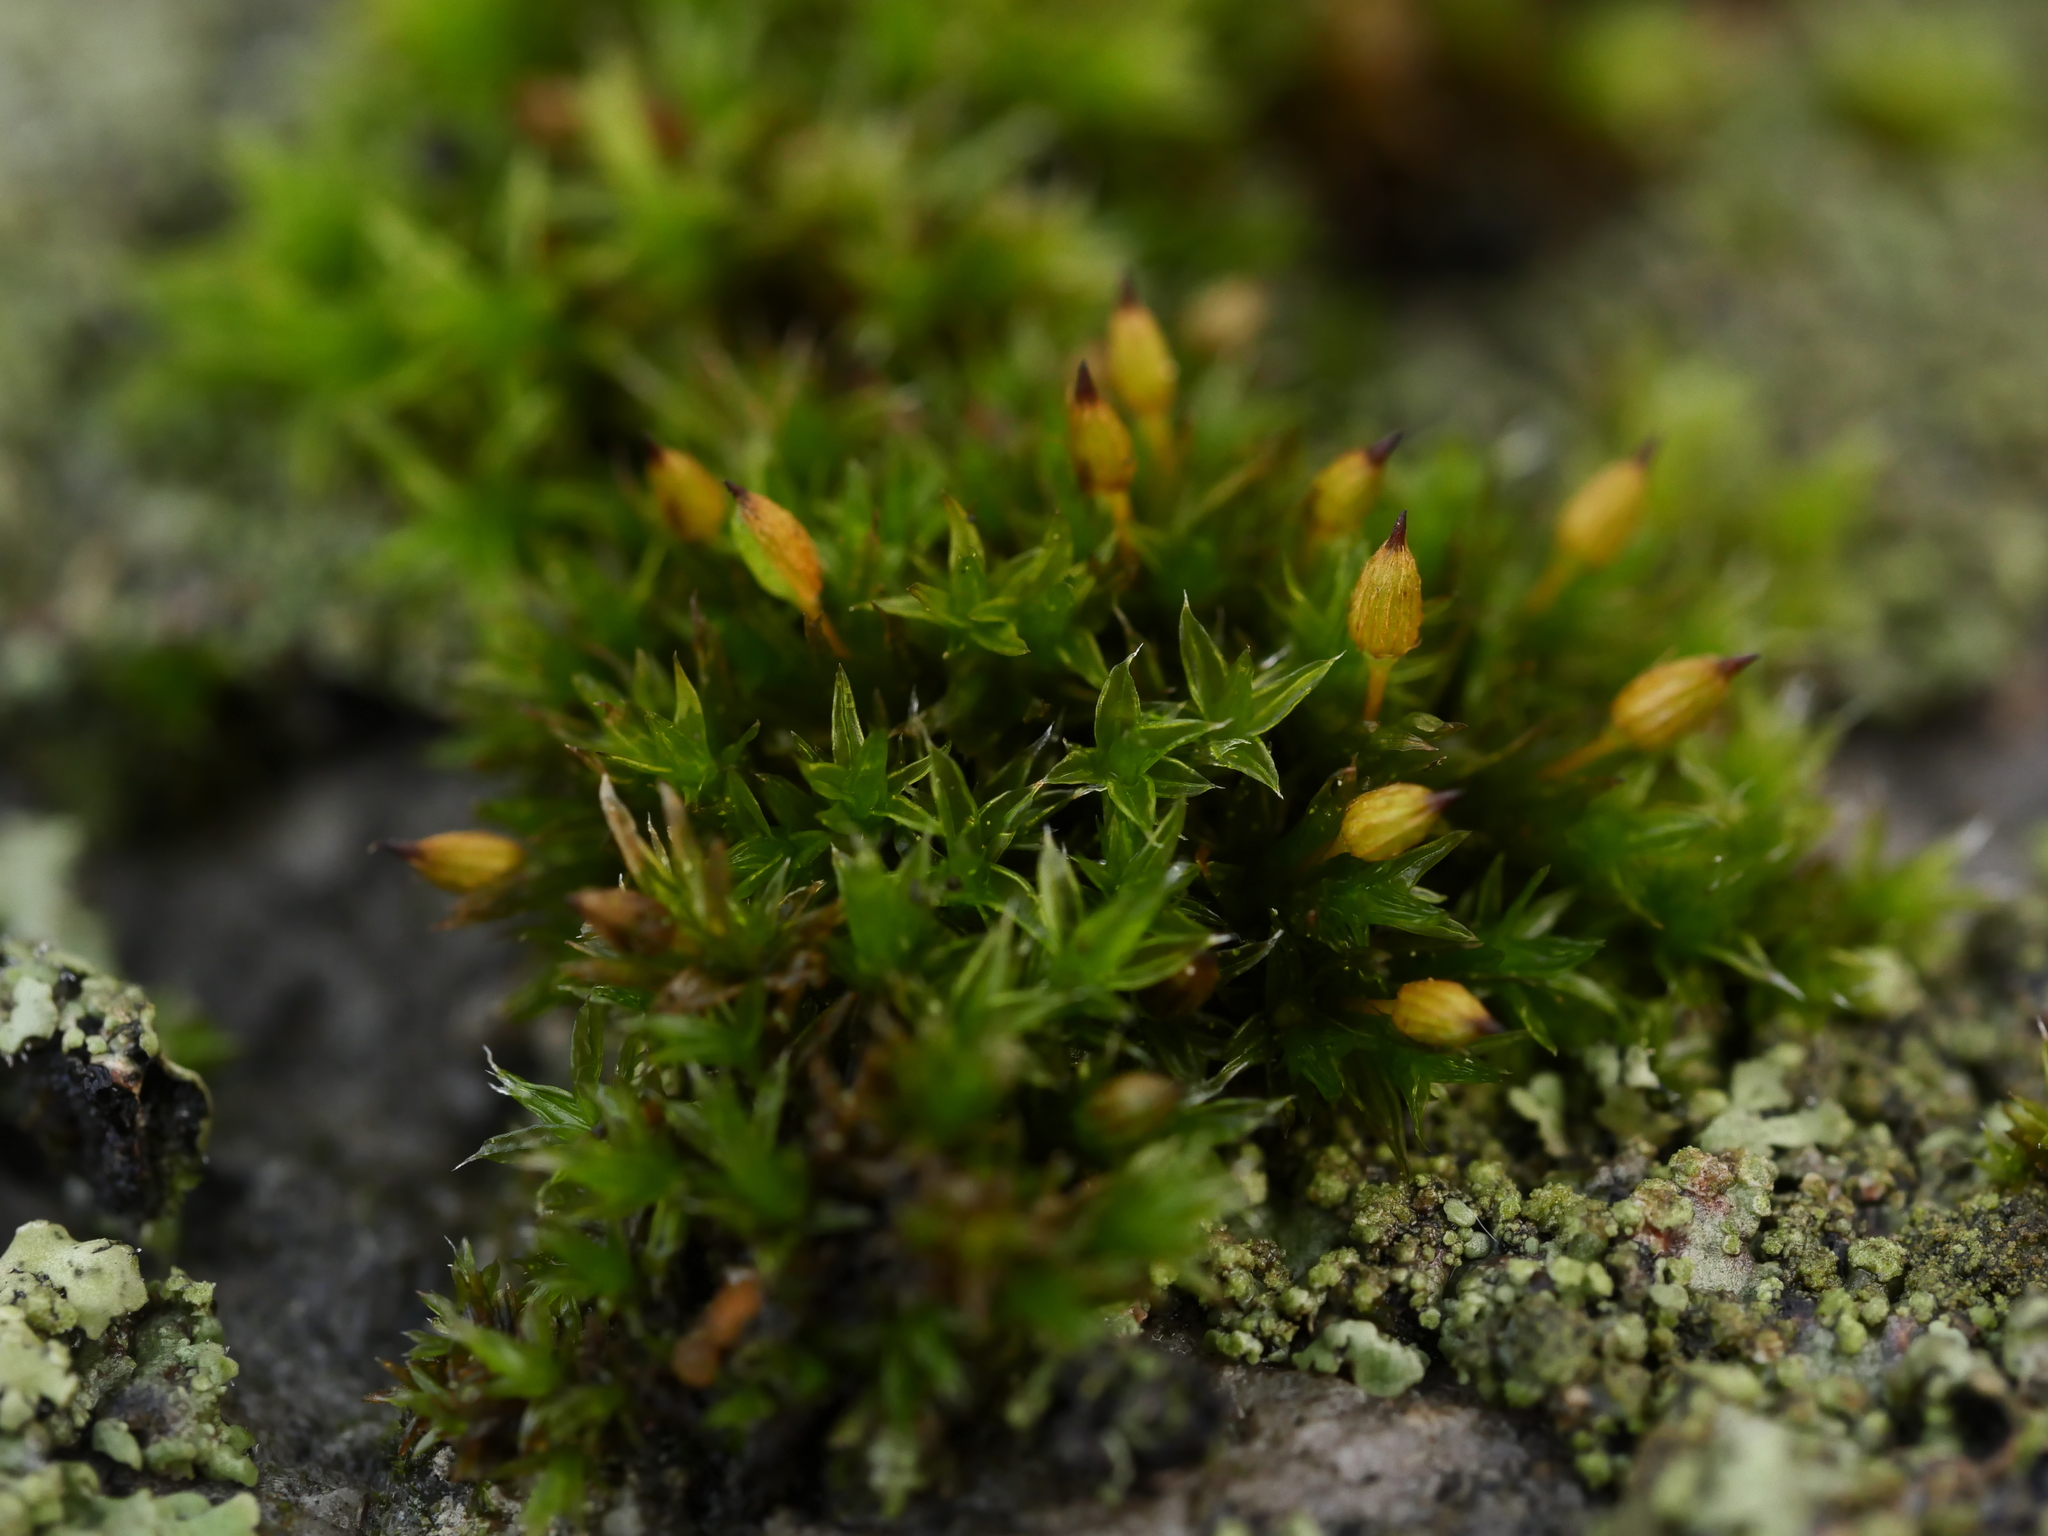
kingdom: Plantae
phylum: Bryophyta
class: Bryopsida
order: Orthotrichales
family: Orthotrichaceae
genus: Orthotrichum
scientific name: Orthotrichum anomalum
